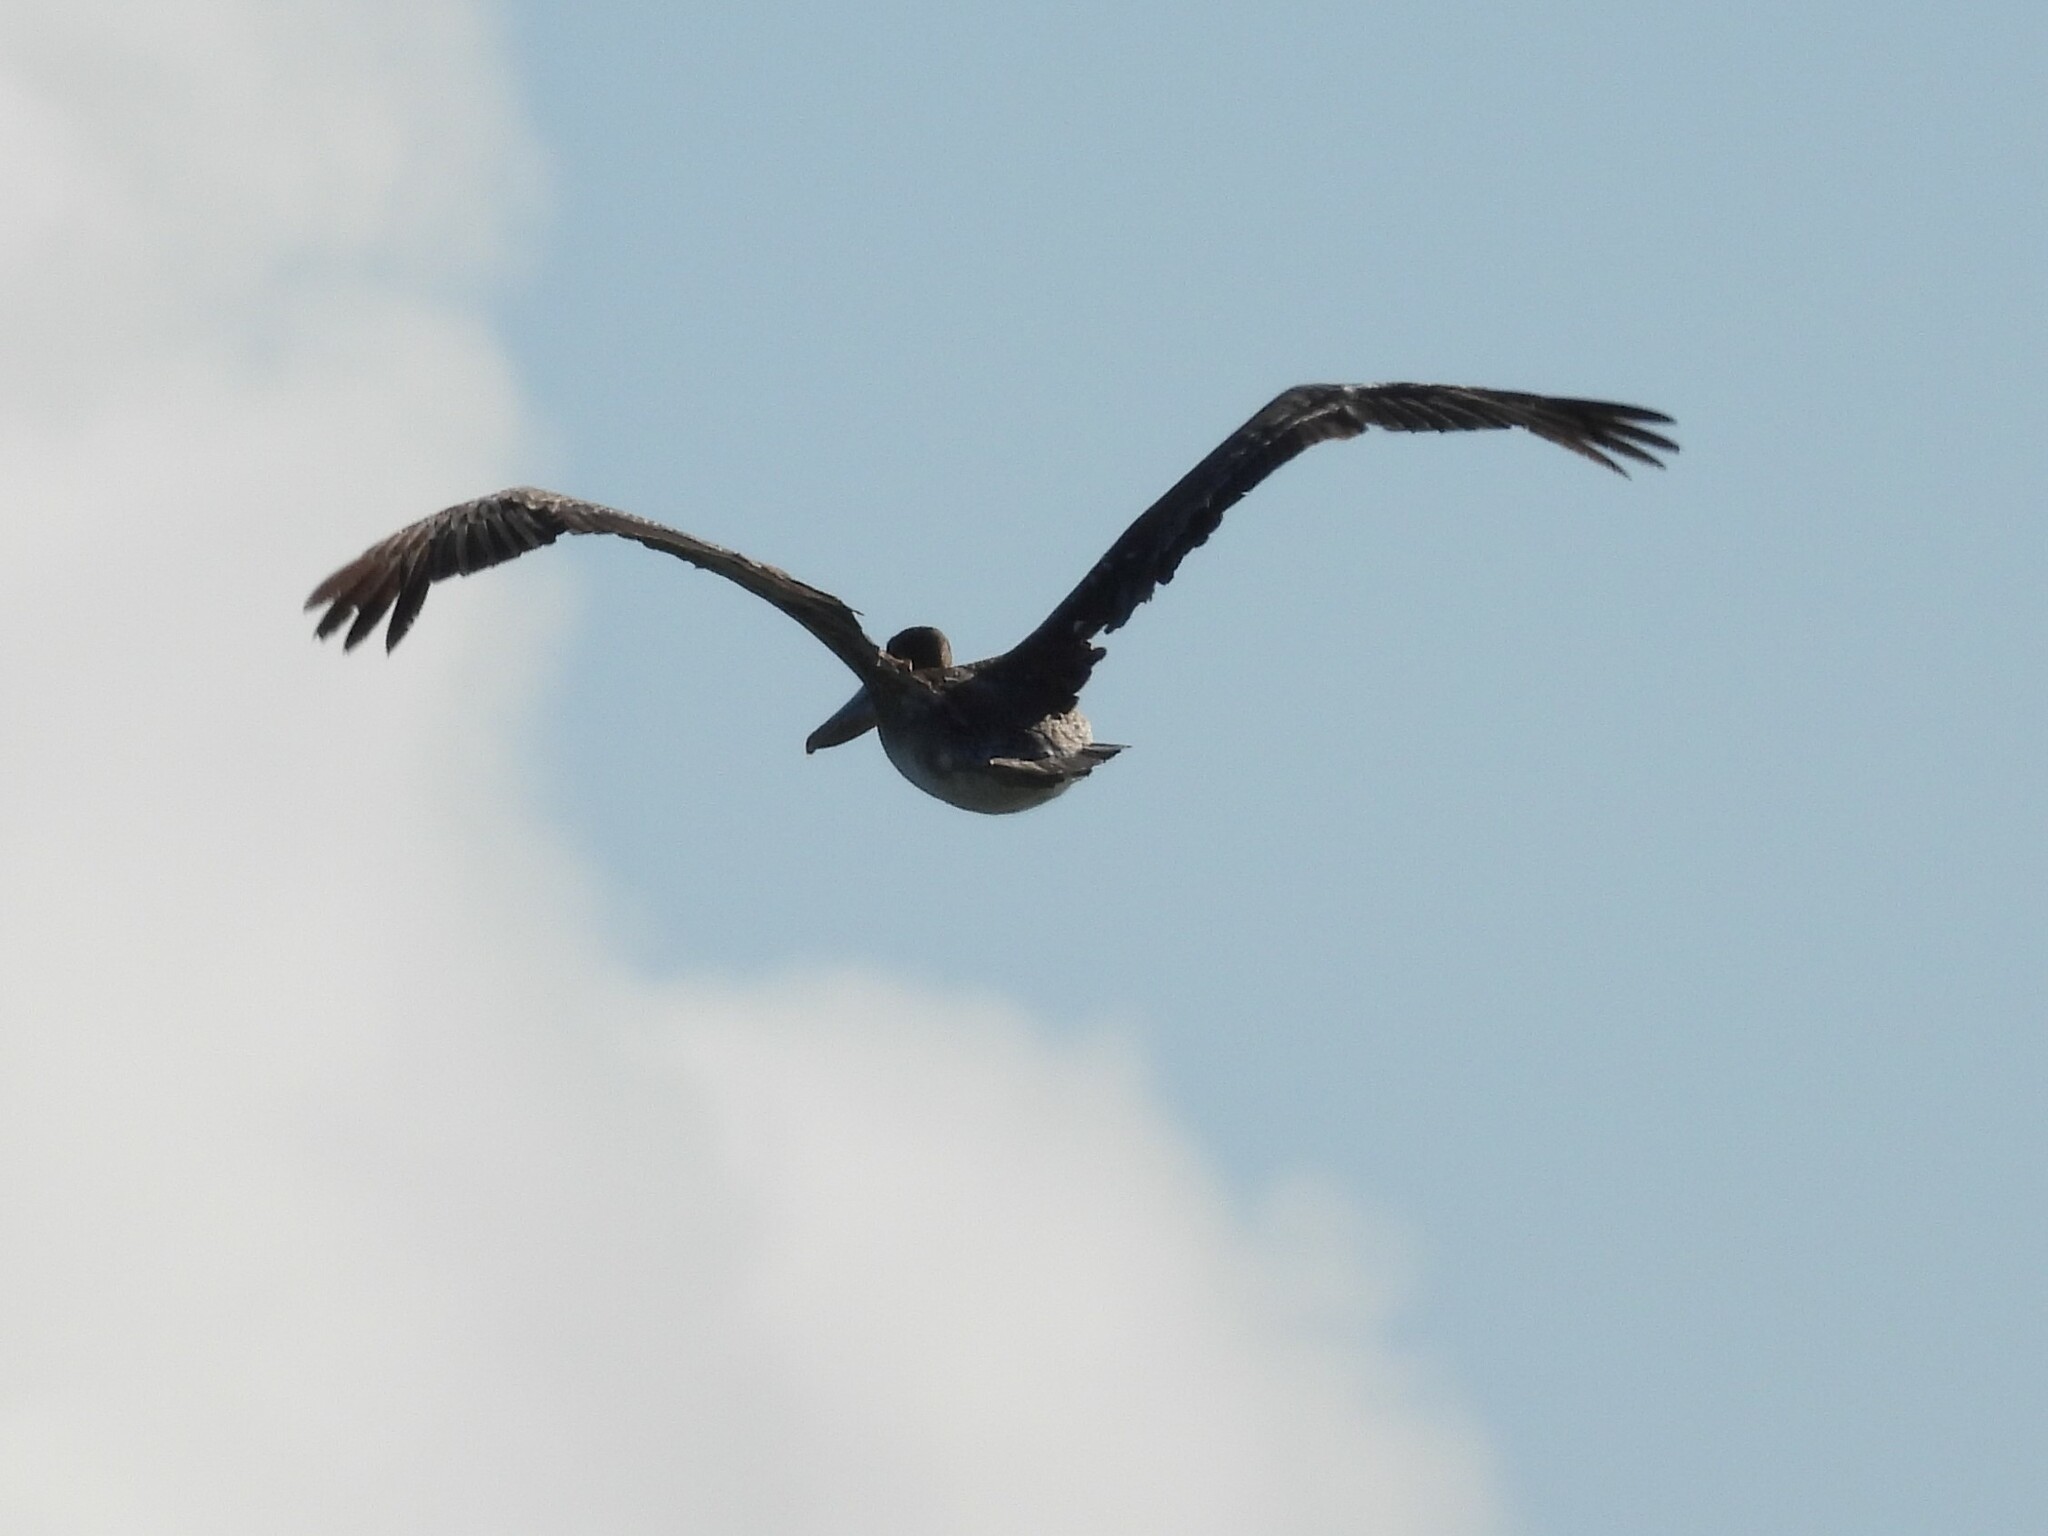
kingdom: Animalia
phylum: Chordata
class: Aves
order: Pelecaniformes
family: Pelecanidae
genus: Pelecanus
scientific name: Pelecanus occidentalis
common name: Brown pelican
